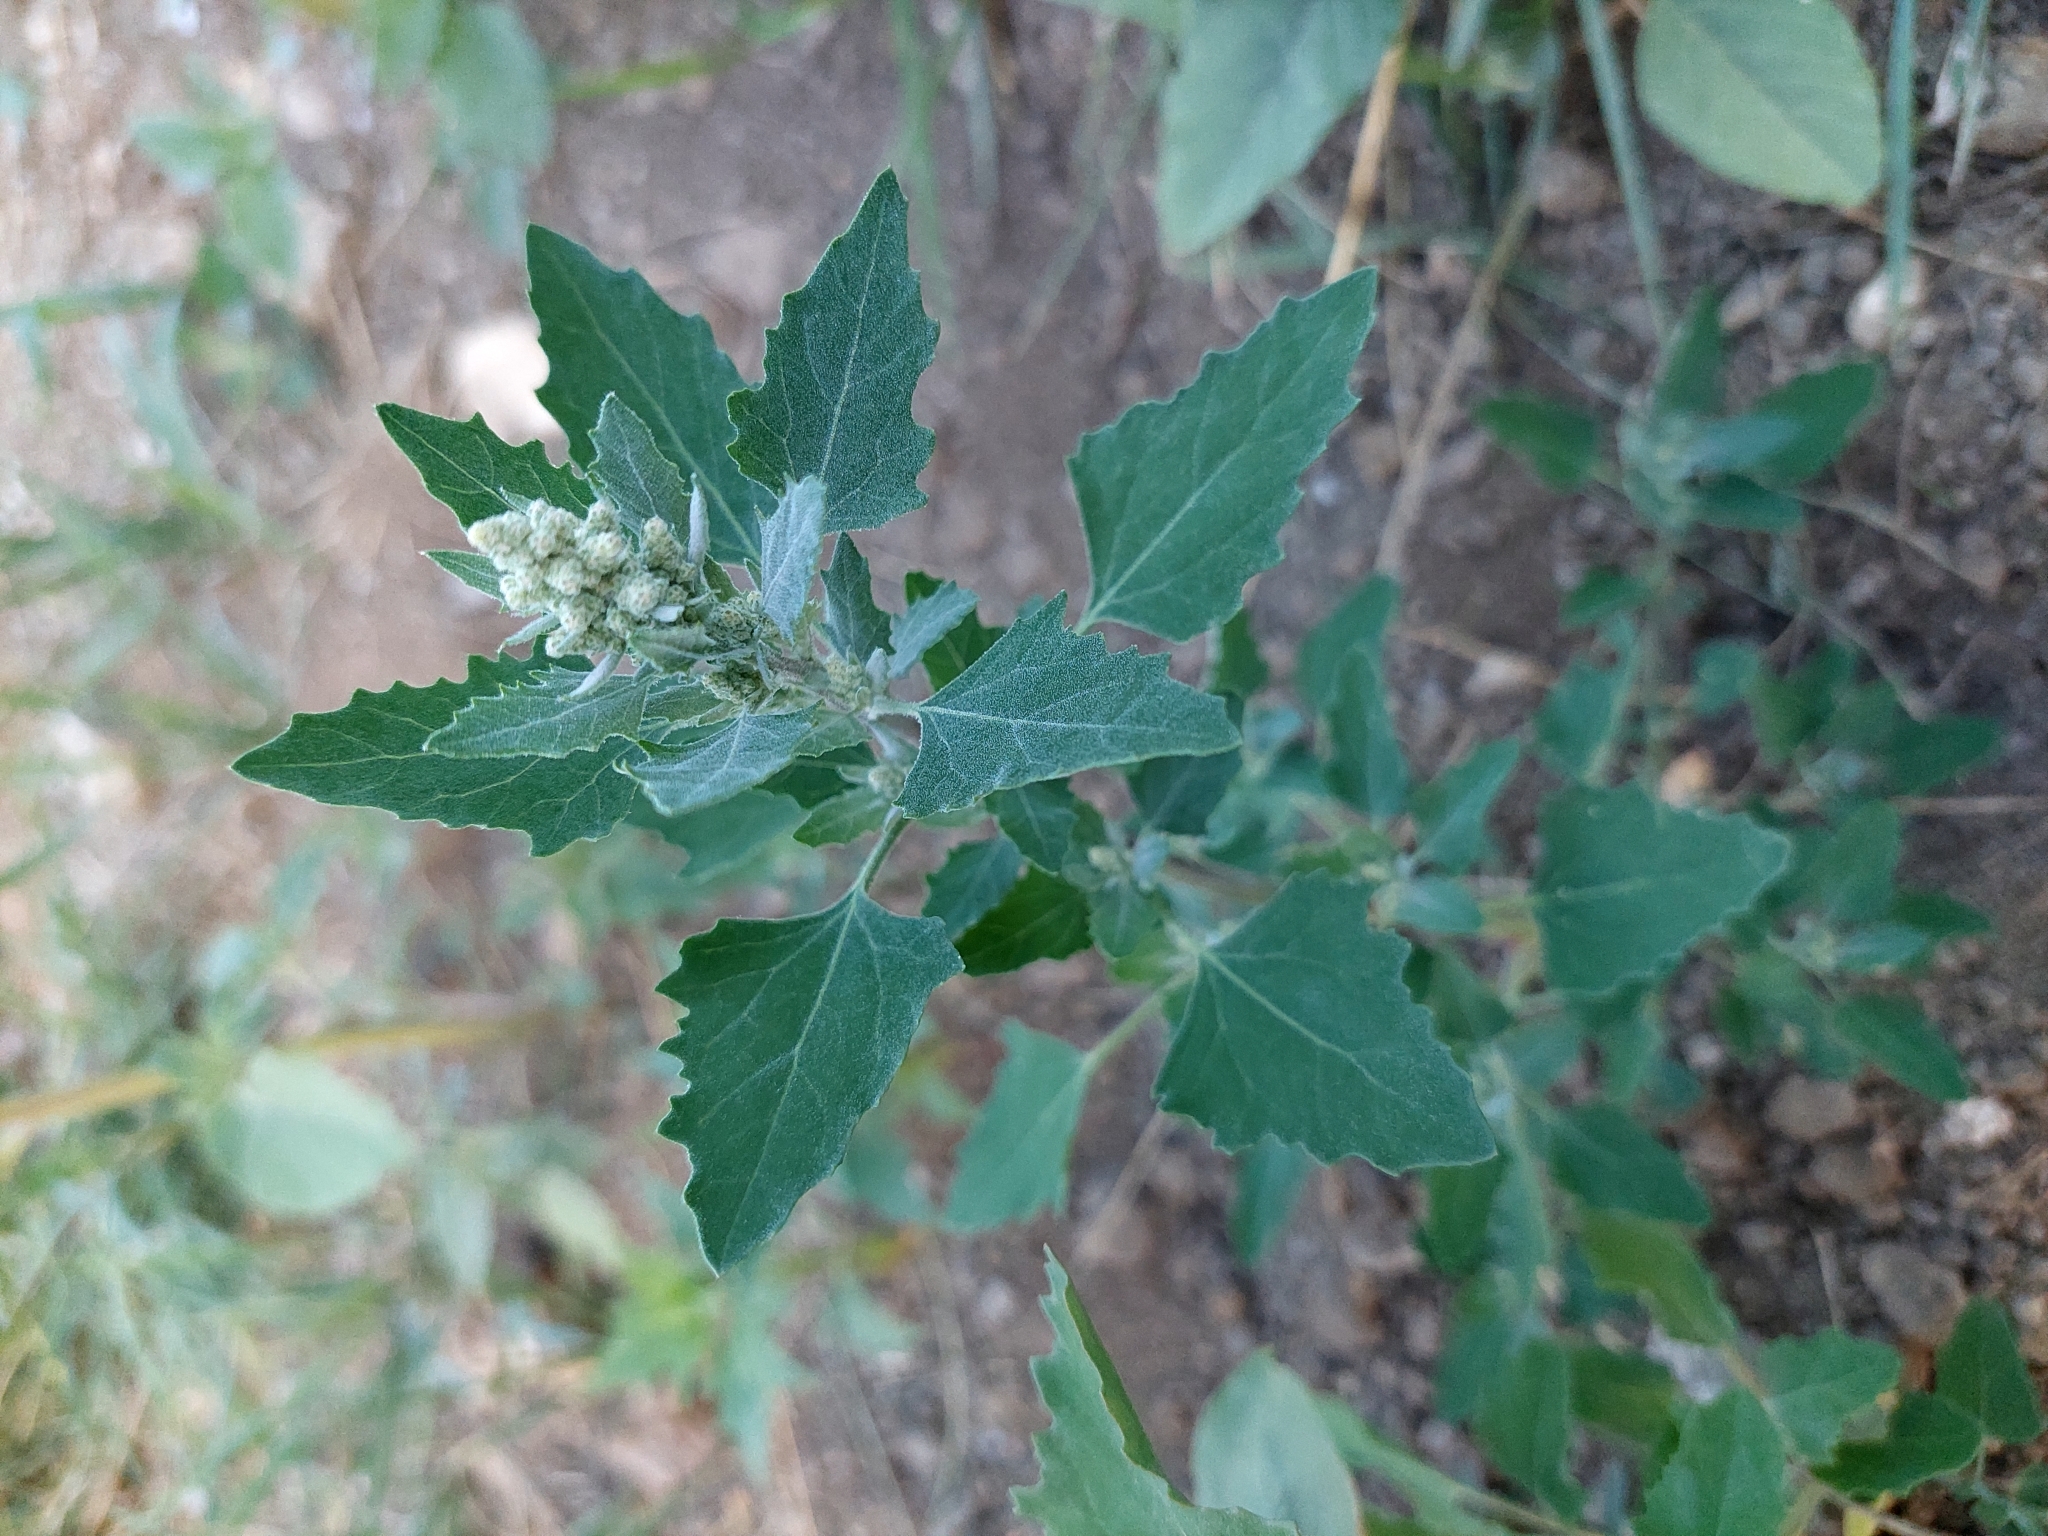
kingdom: Plantae
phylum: Tracheophyta
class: Magnoliopsida
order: Caryophyllales
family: Amaranthaceae
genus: Chenopodium
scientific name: Chenopodium album
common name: Fat-hen
